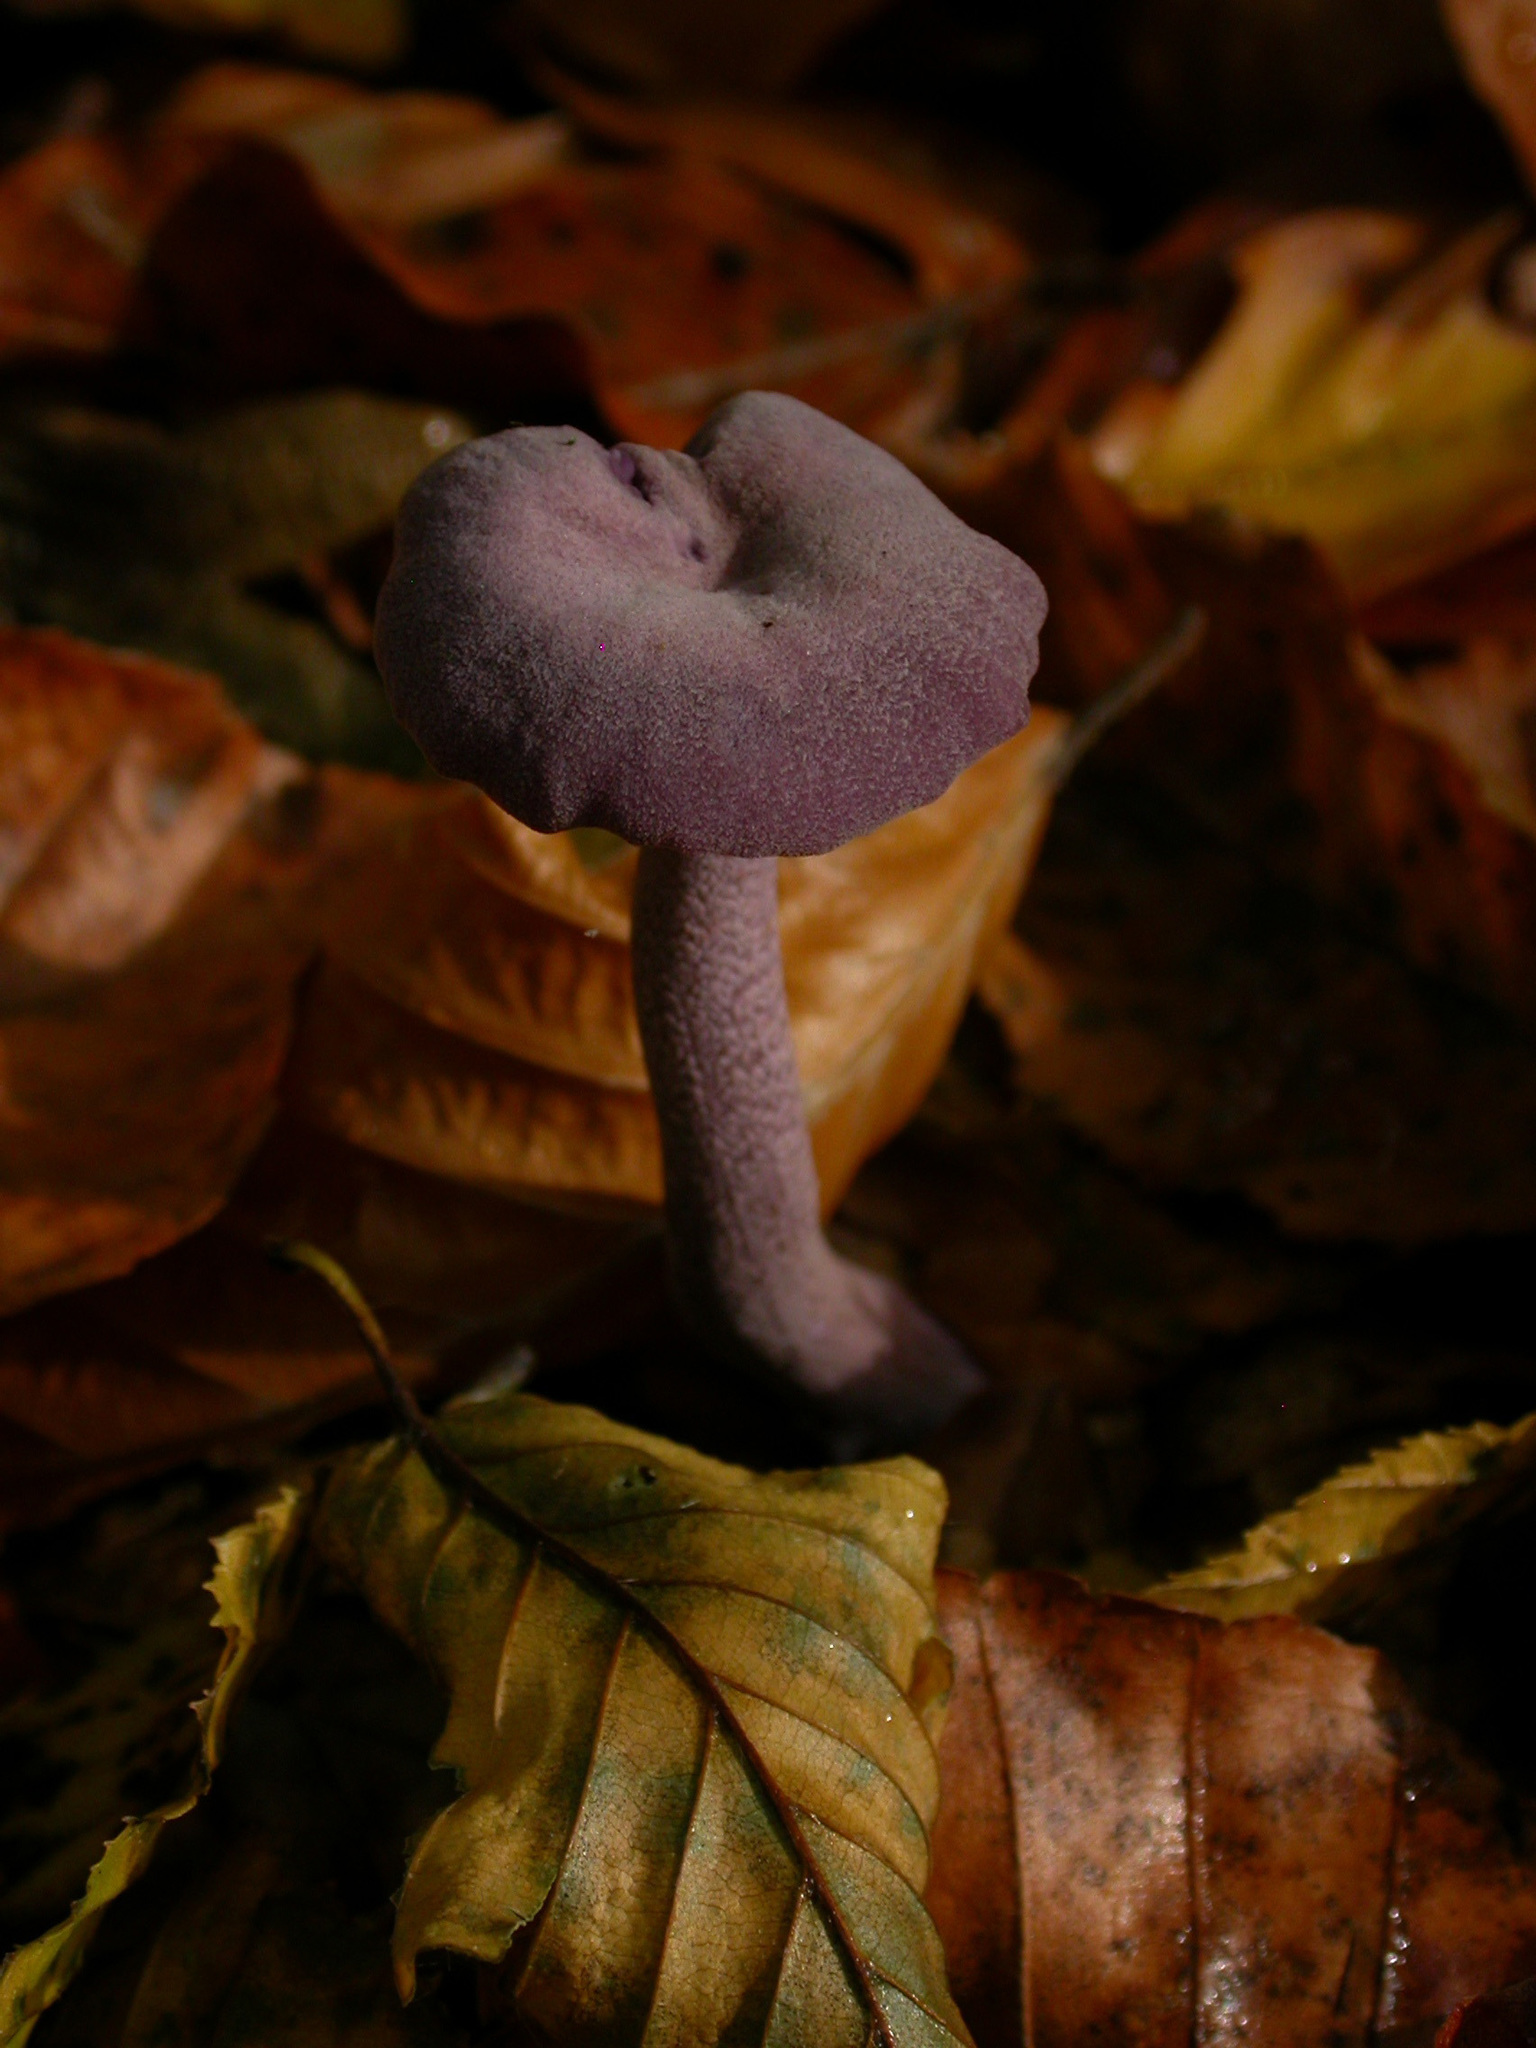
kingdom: Fungi
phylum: Basidiomycota
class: Agaricomycetes
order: Agaricales
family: Hydnangiaceae
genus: Laccaria
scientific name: Laccaria amethystina
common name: Amethyst deceiver
